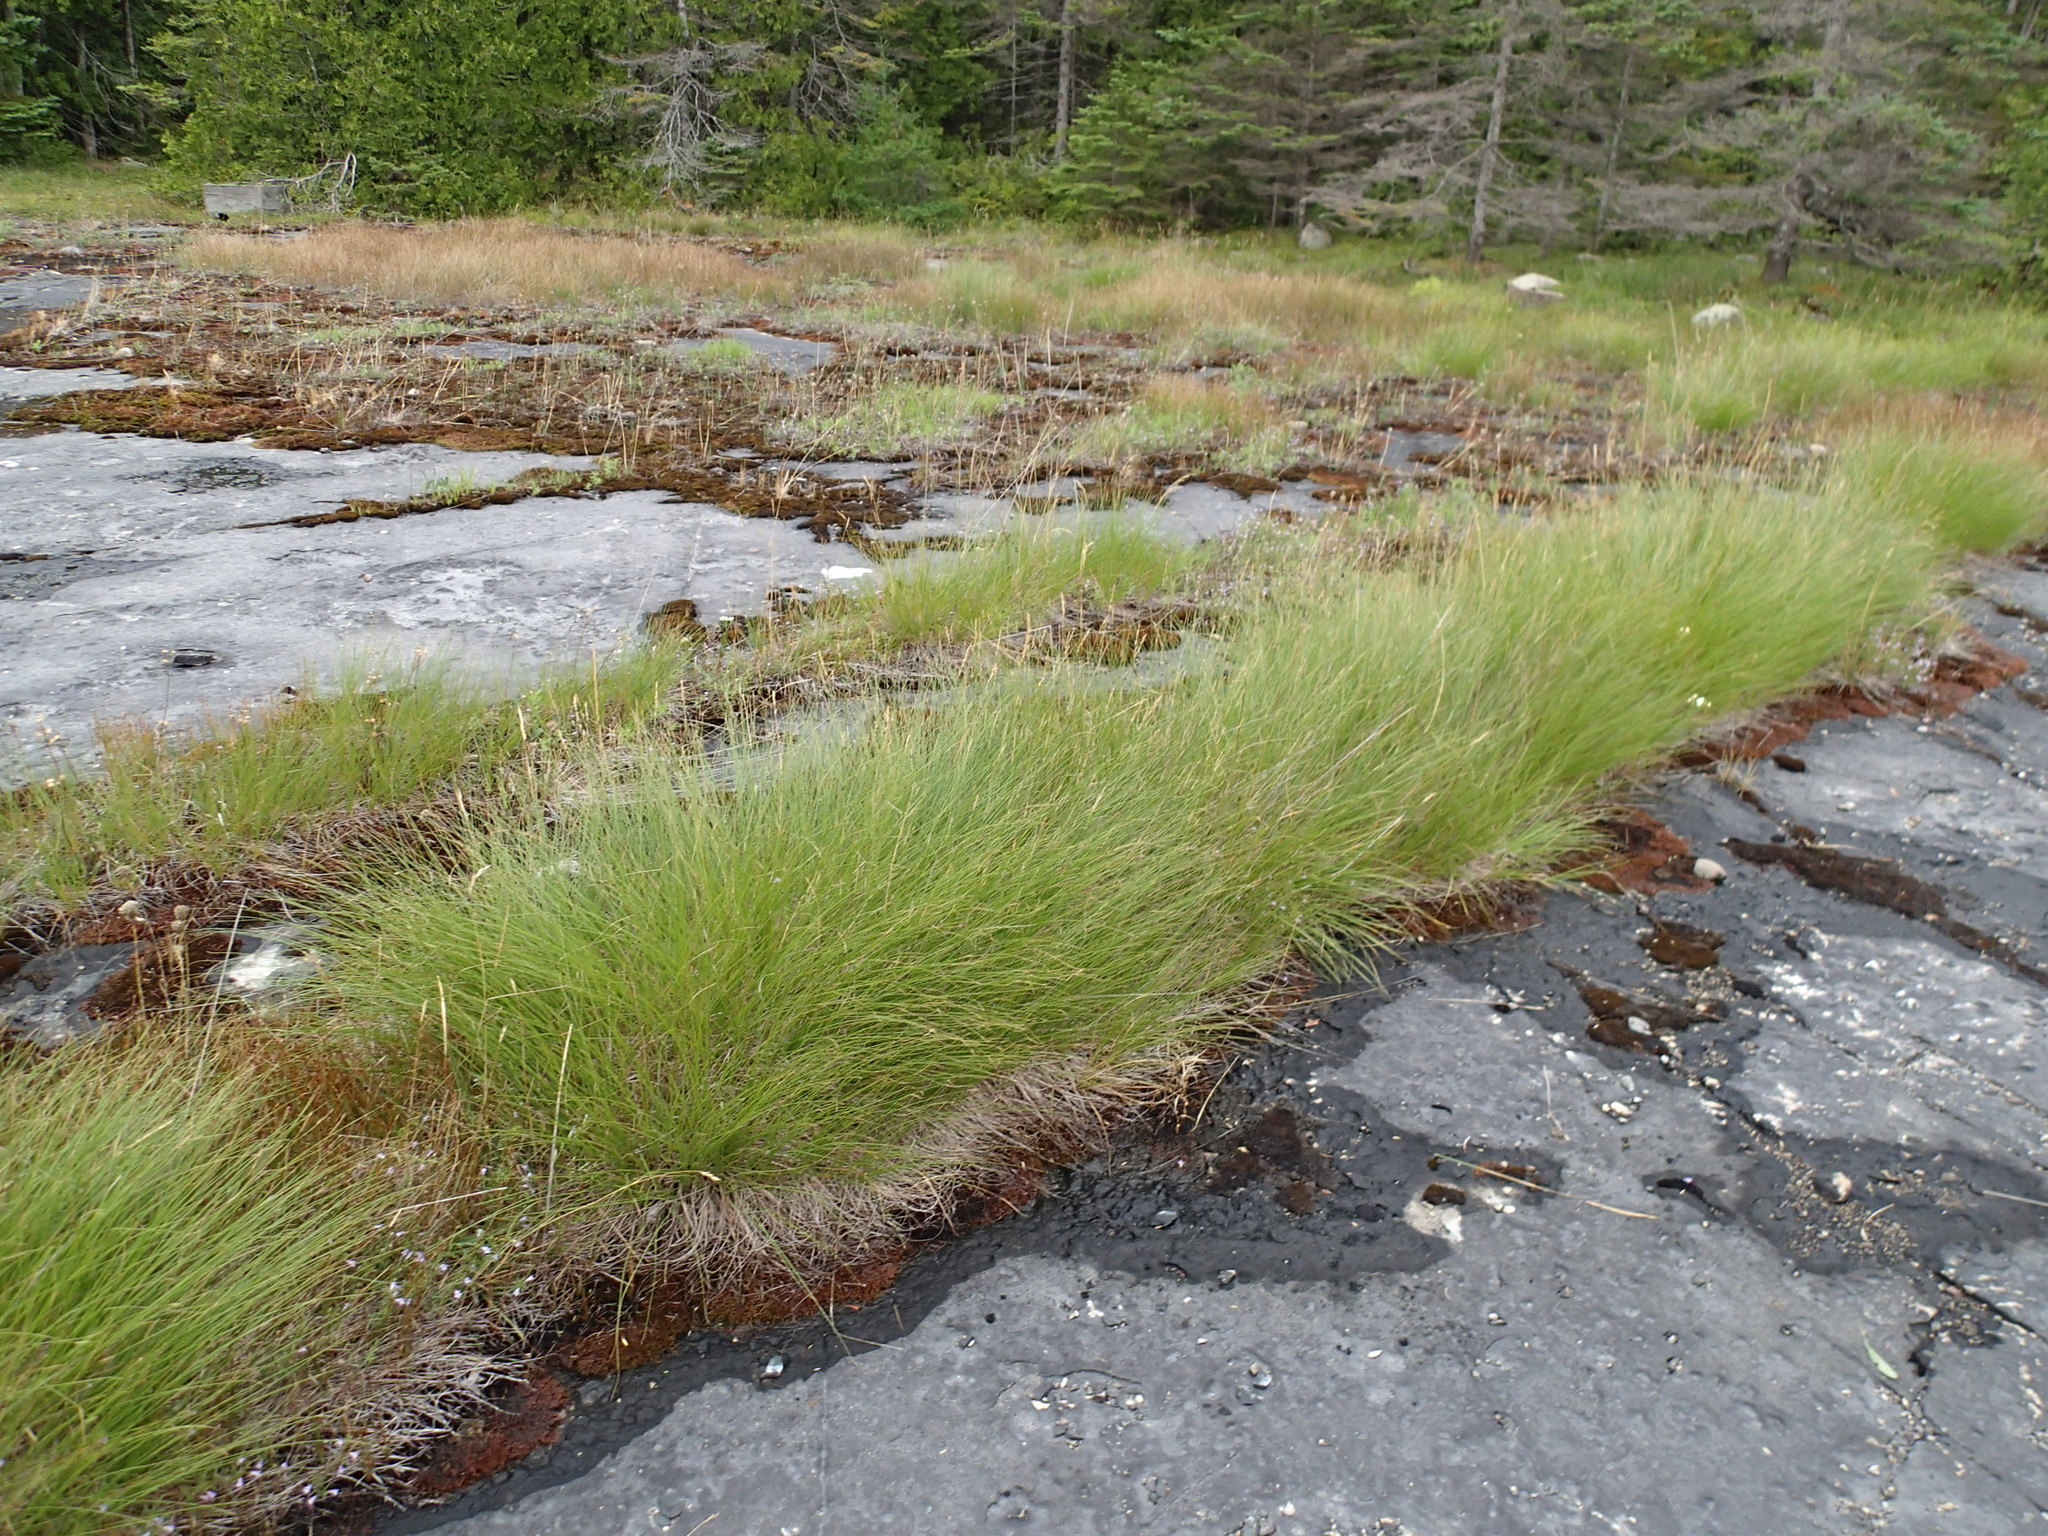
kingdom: Plantae
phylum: Tracheophyta
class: Liliopsida
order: Poales
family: Poaceae
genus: Sporobolus
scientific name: Sporobolus heterolepis
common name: Prairie dropseed
